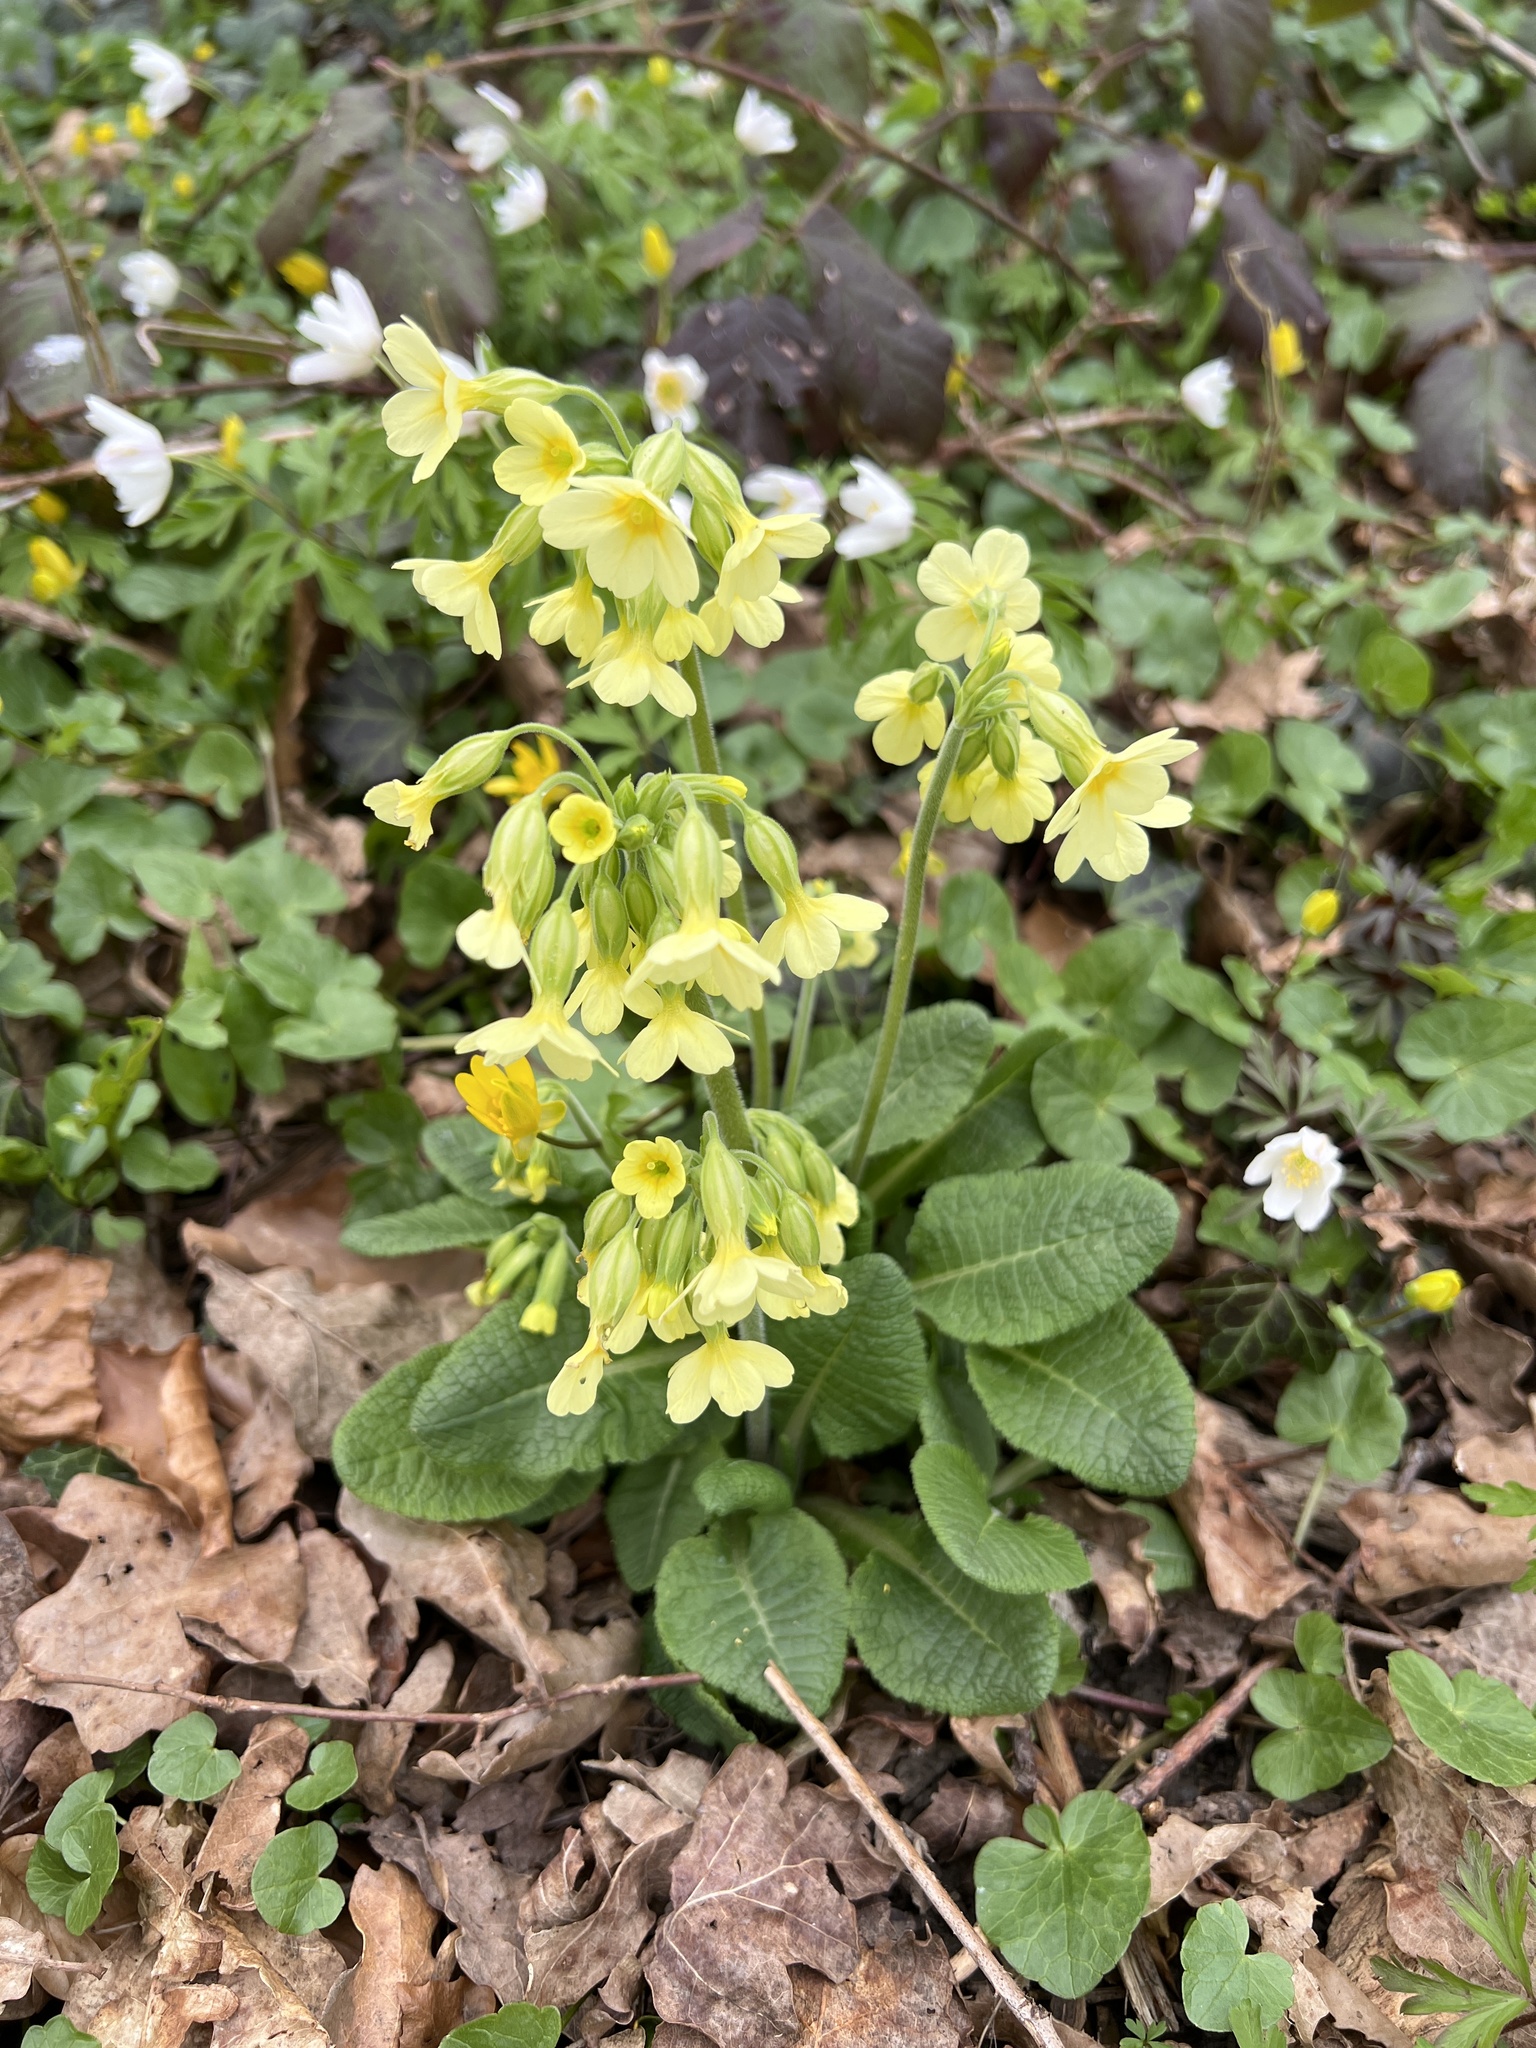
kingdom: Plantae
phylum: Tracheophyta
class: Magnoliopsida
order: Ericales
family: Primulaceae
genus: Primula
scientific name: Primula elatior
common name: Oxlip
